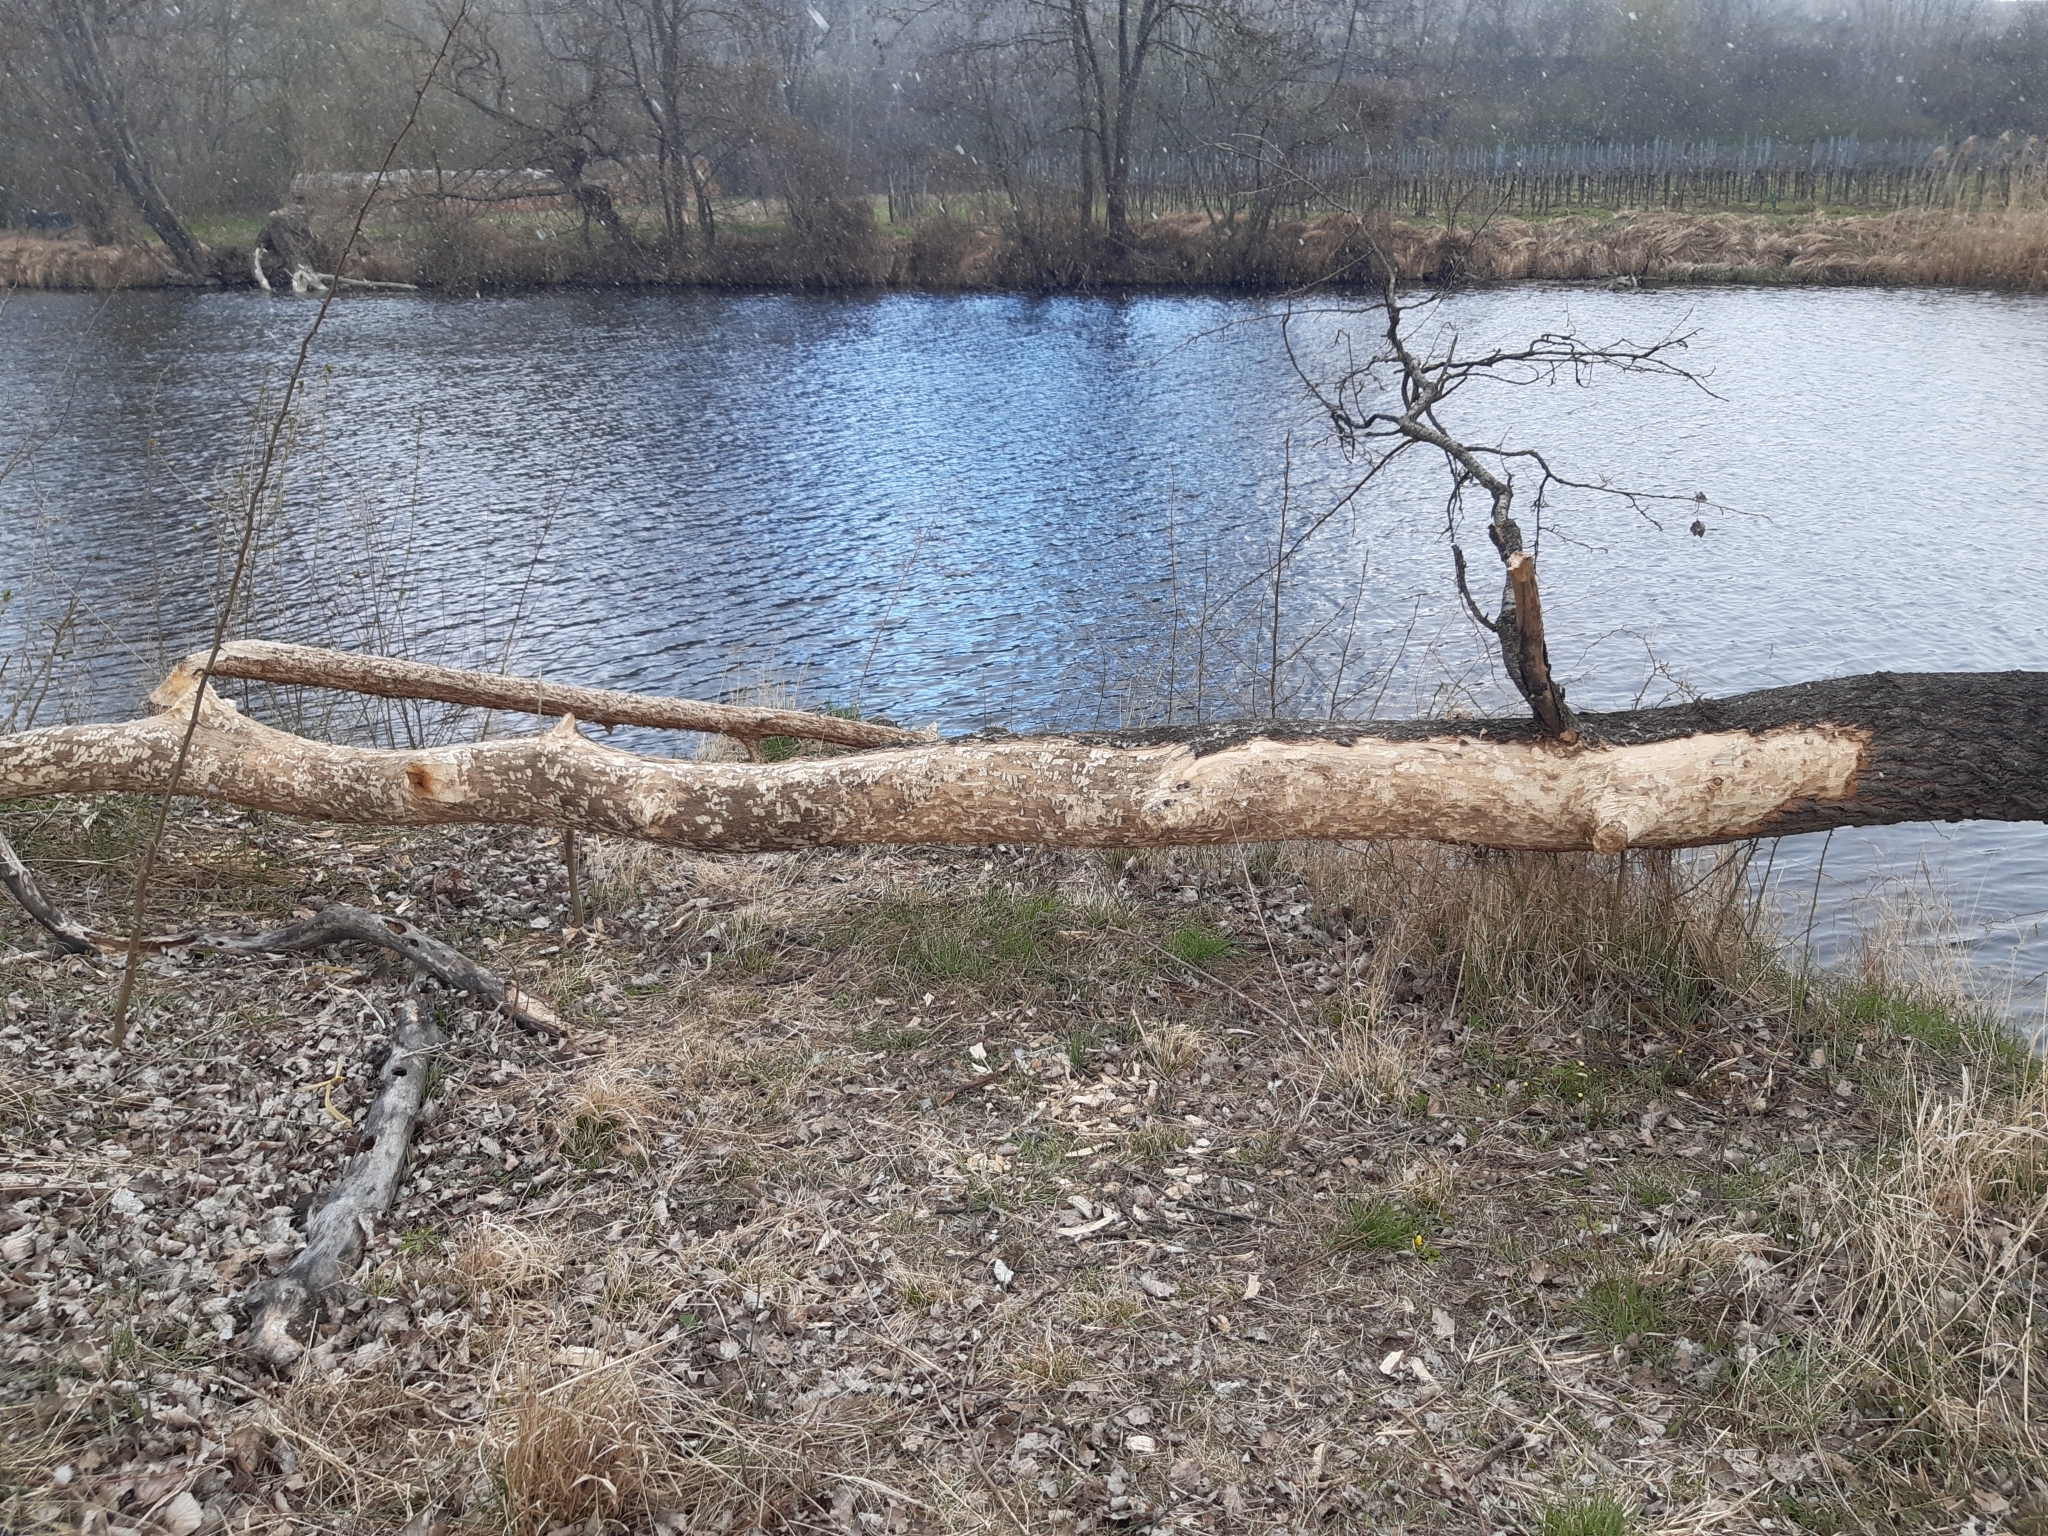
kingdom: Animalia
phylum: Chordata
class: Mammalia
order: Rodentia
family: Castoridae
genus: Castor
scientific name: Castor fiber
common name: Eurasian beaver
